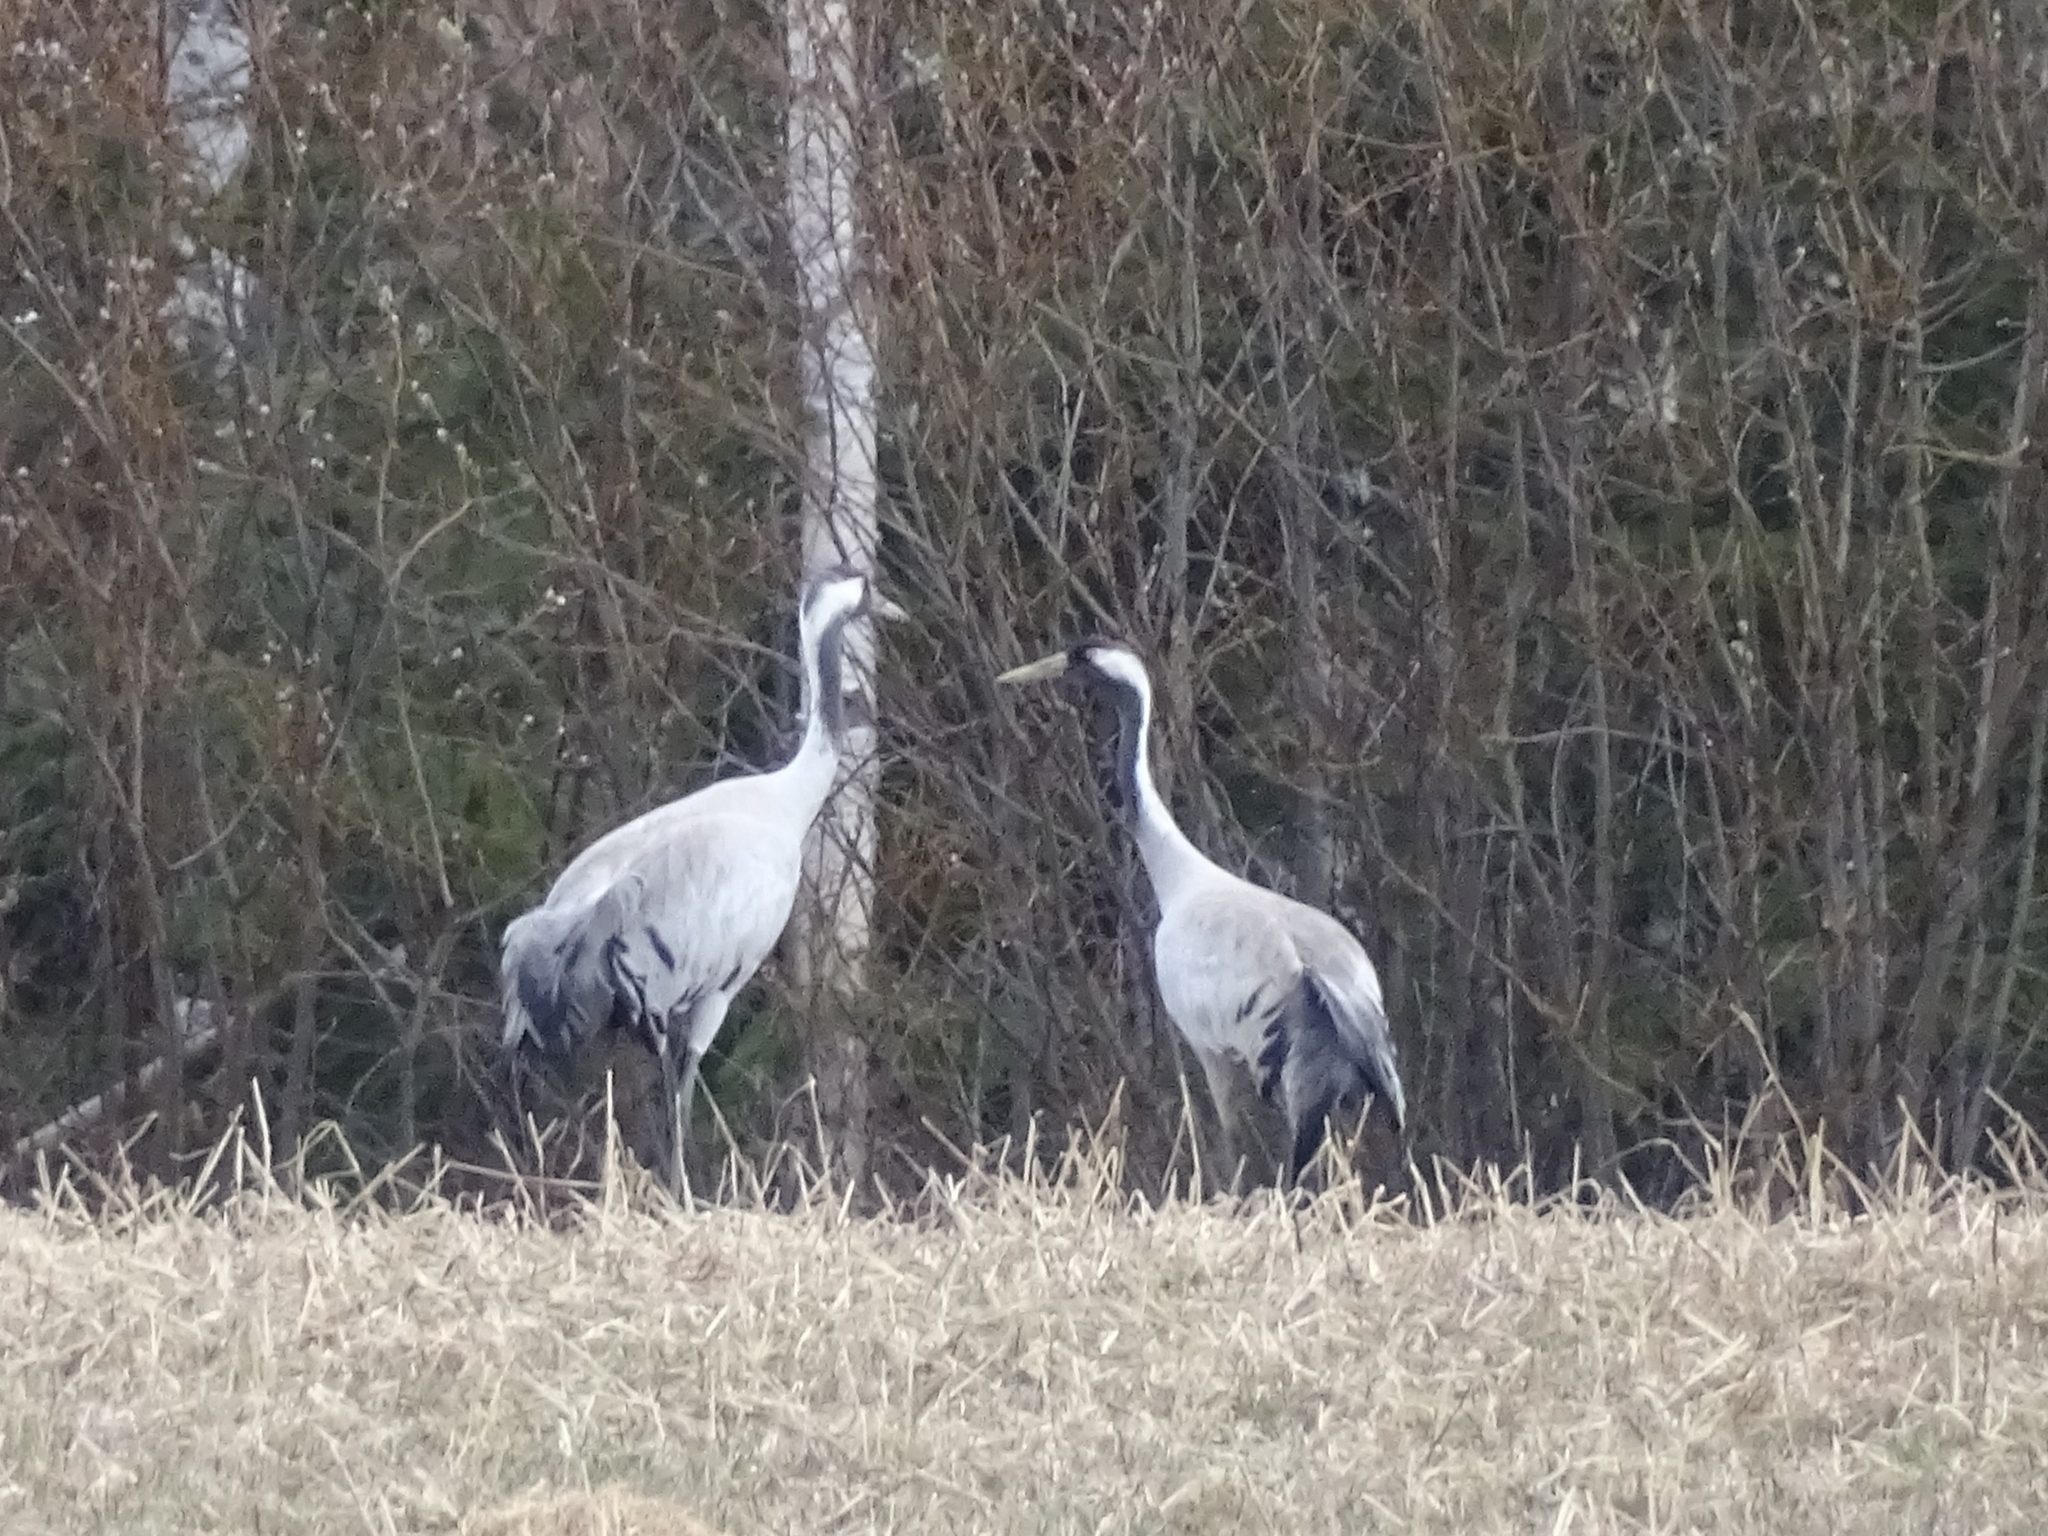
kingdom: Animalia
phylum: Chordata
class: Aves
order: Gruiformes
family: Gruidae
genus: Grus
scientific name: Grus grus
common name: Common crane
